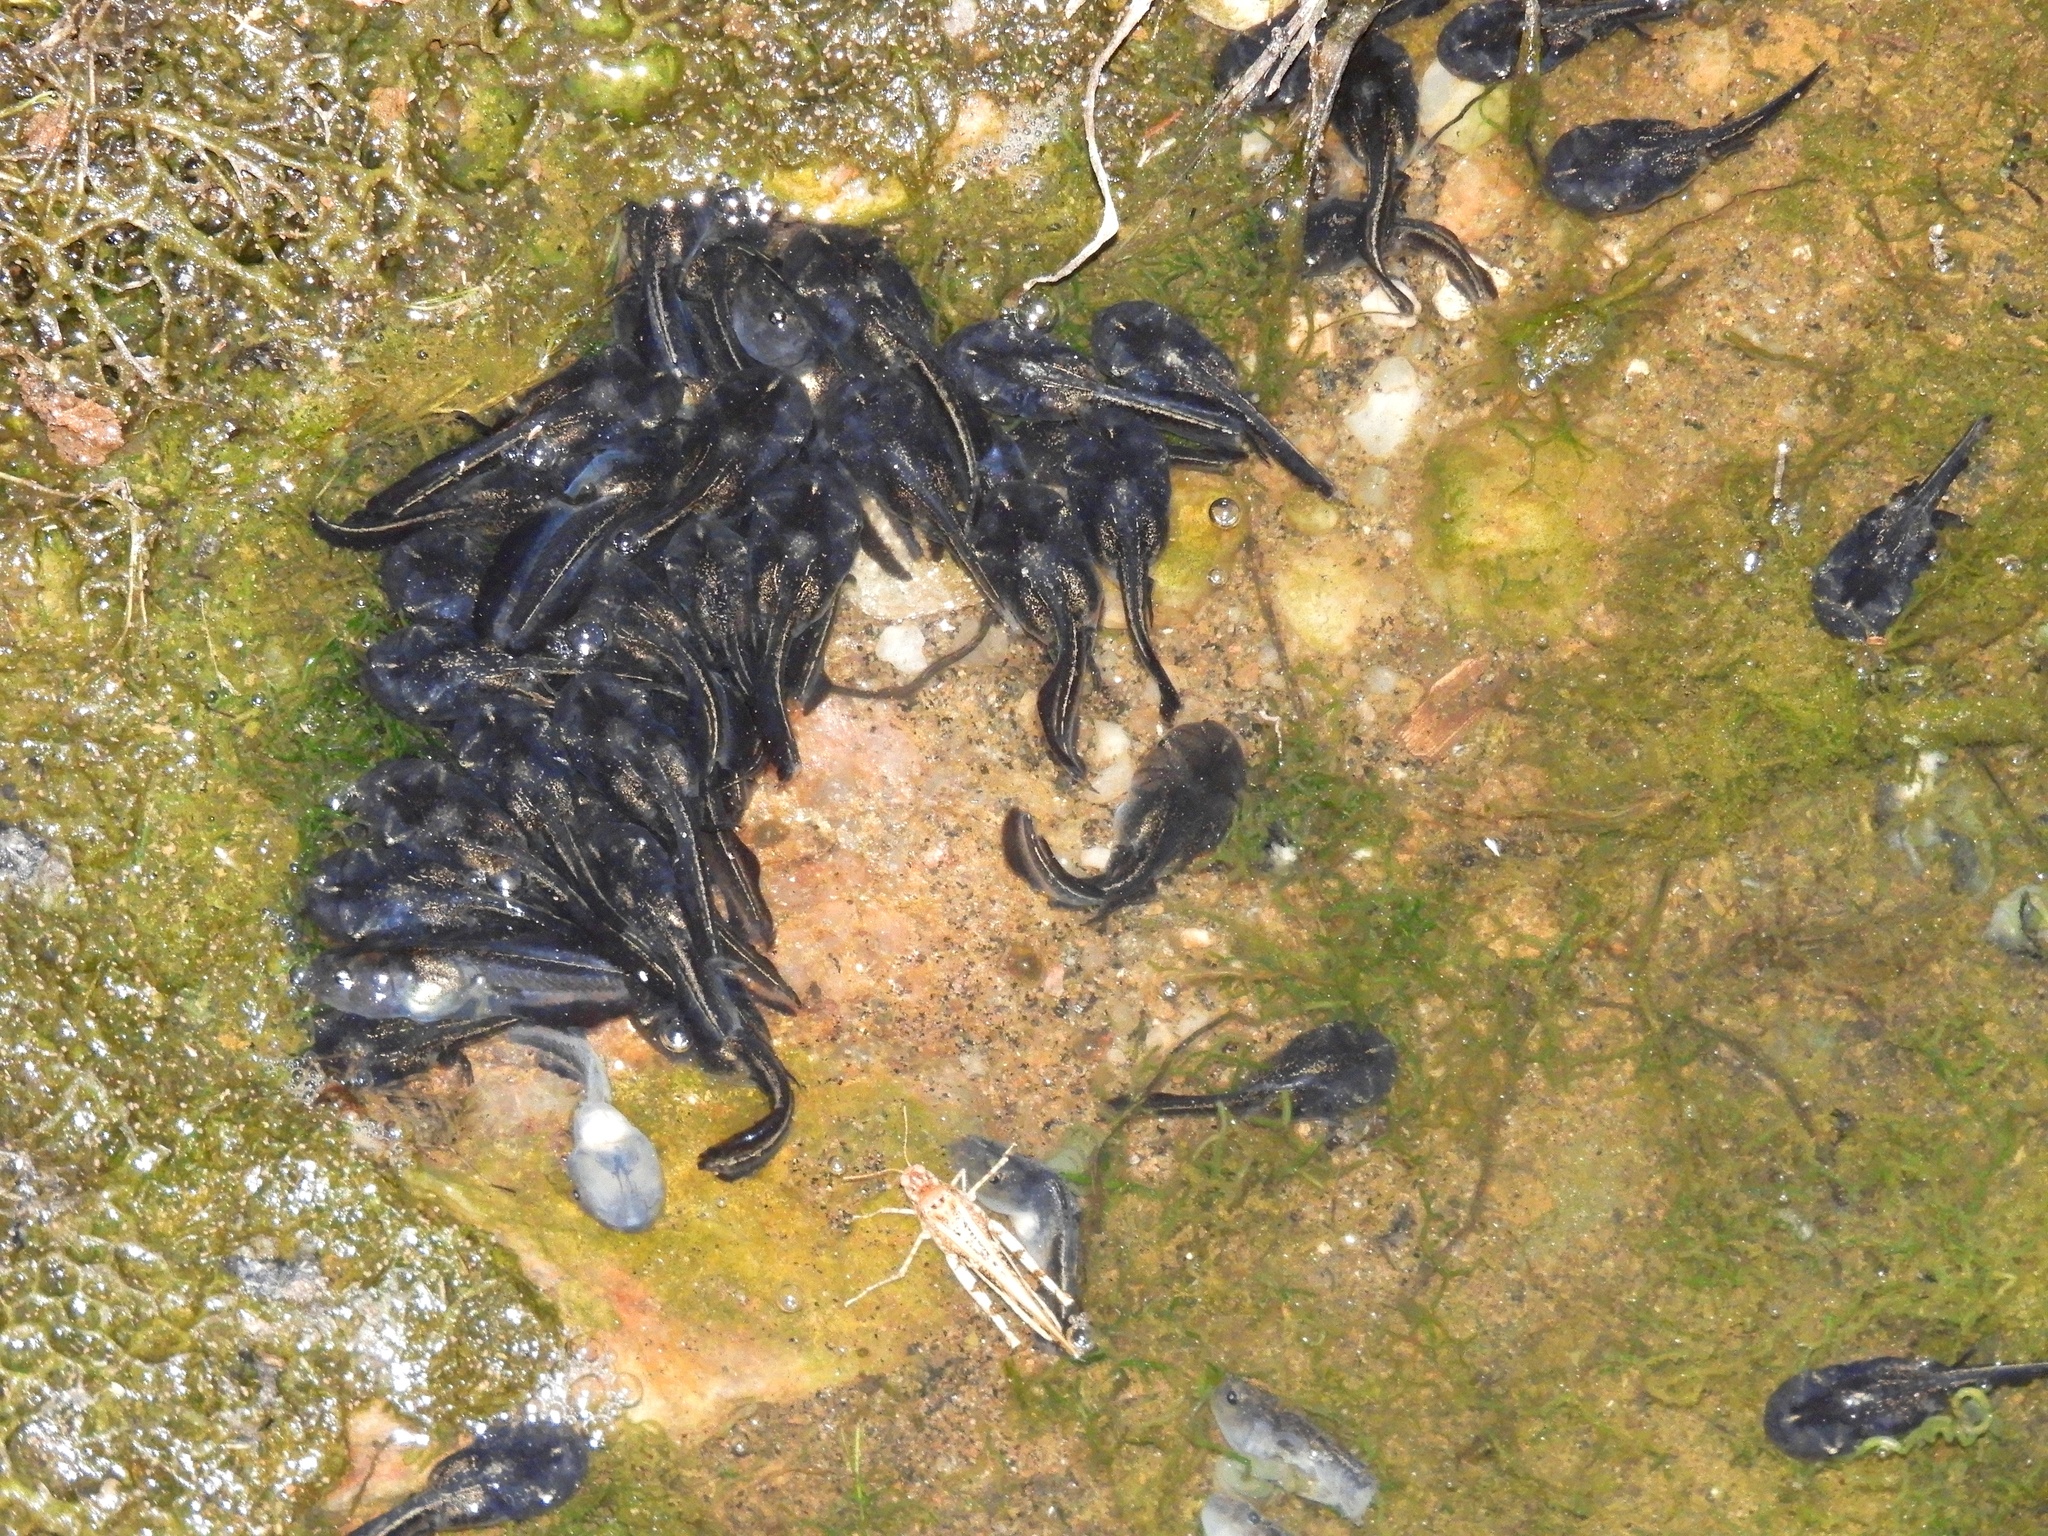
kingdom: Animalia
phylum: Chordata
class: Amphibia
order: Anura
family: Microhylidae
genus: Phrynomantis
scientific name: Phrynomantis annectens
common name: Marbled rubber frog
